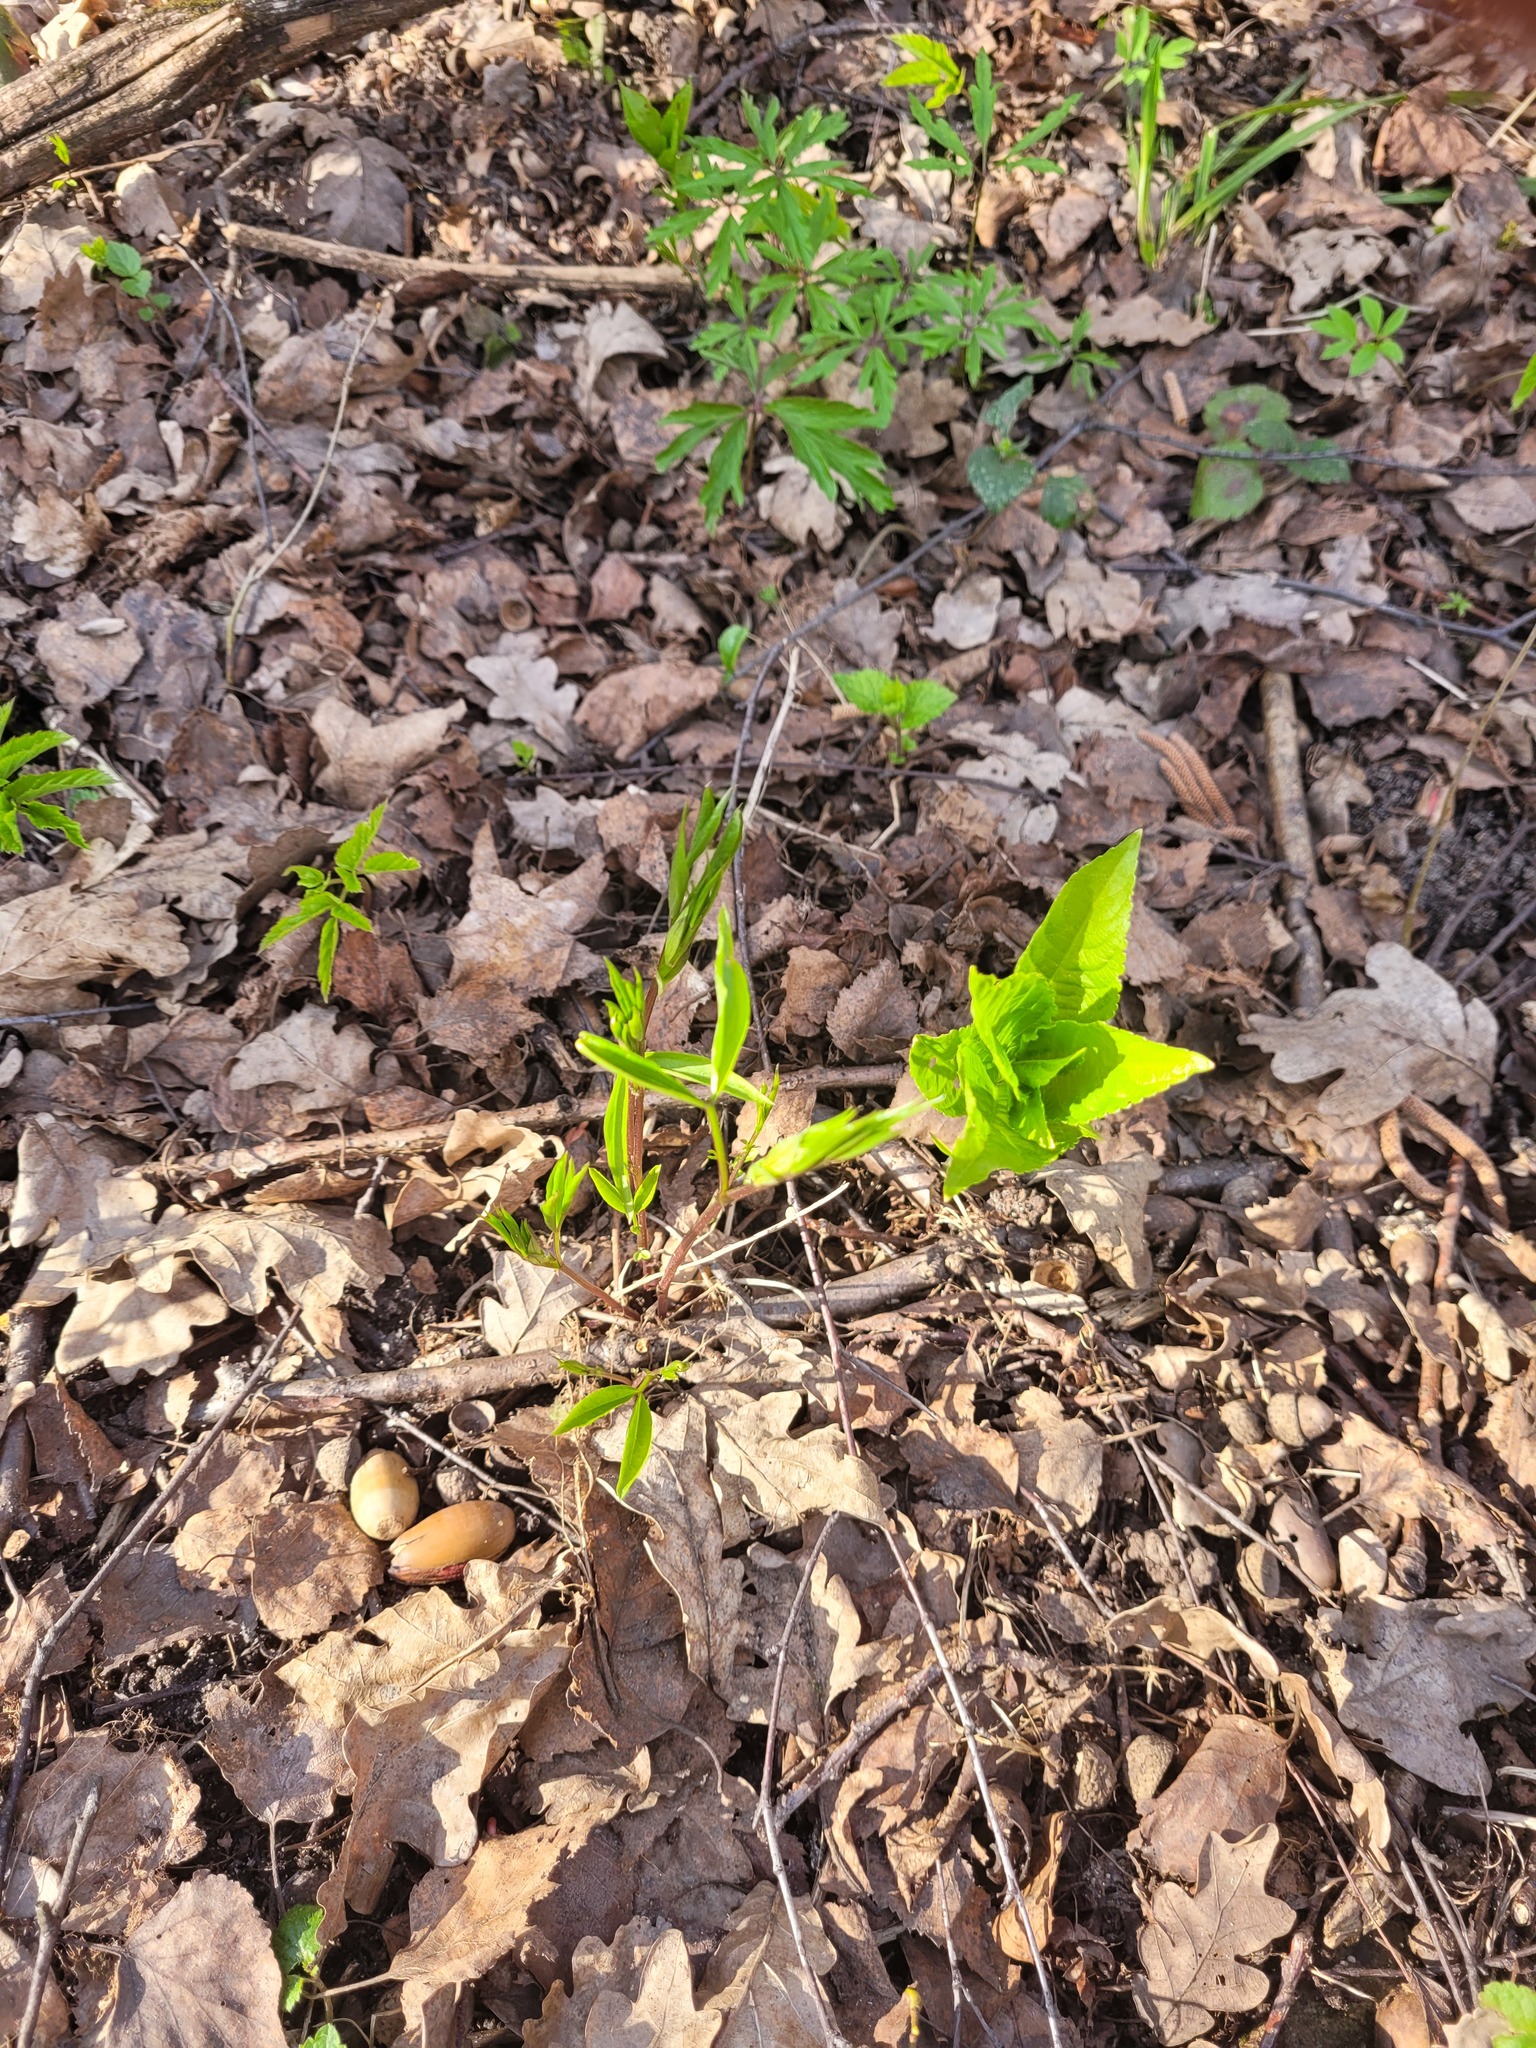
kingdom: Plantae
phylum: Tracheophyta
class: Magnoliopsida
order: Fabales
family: Fabaceae
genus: Lathyrus
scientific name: Lathyrus vernus
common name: Spring pea
